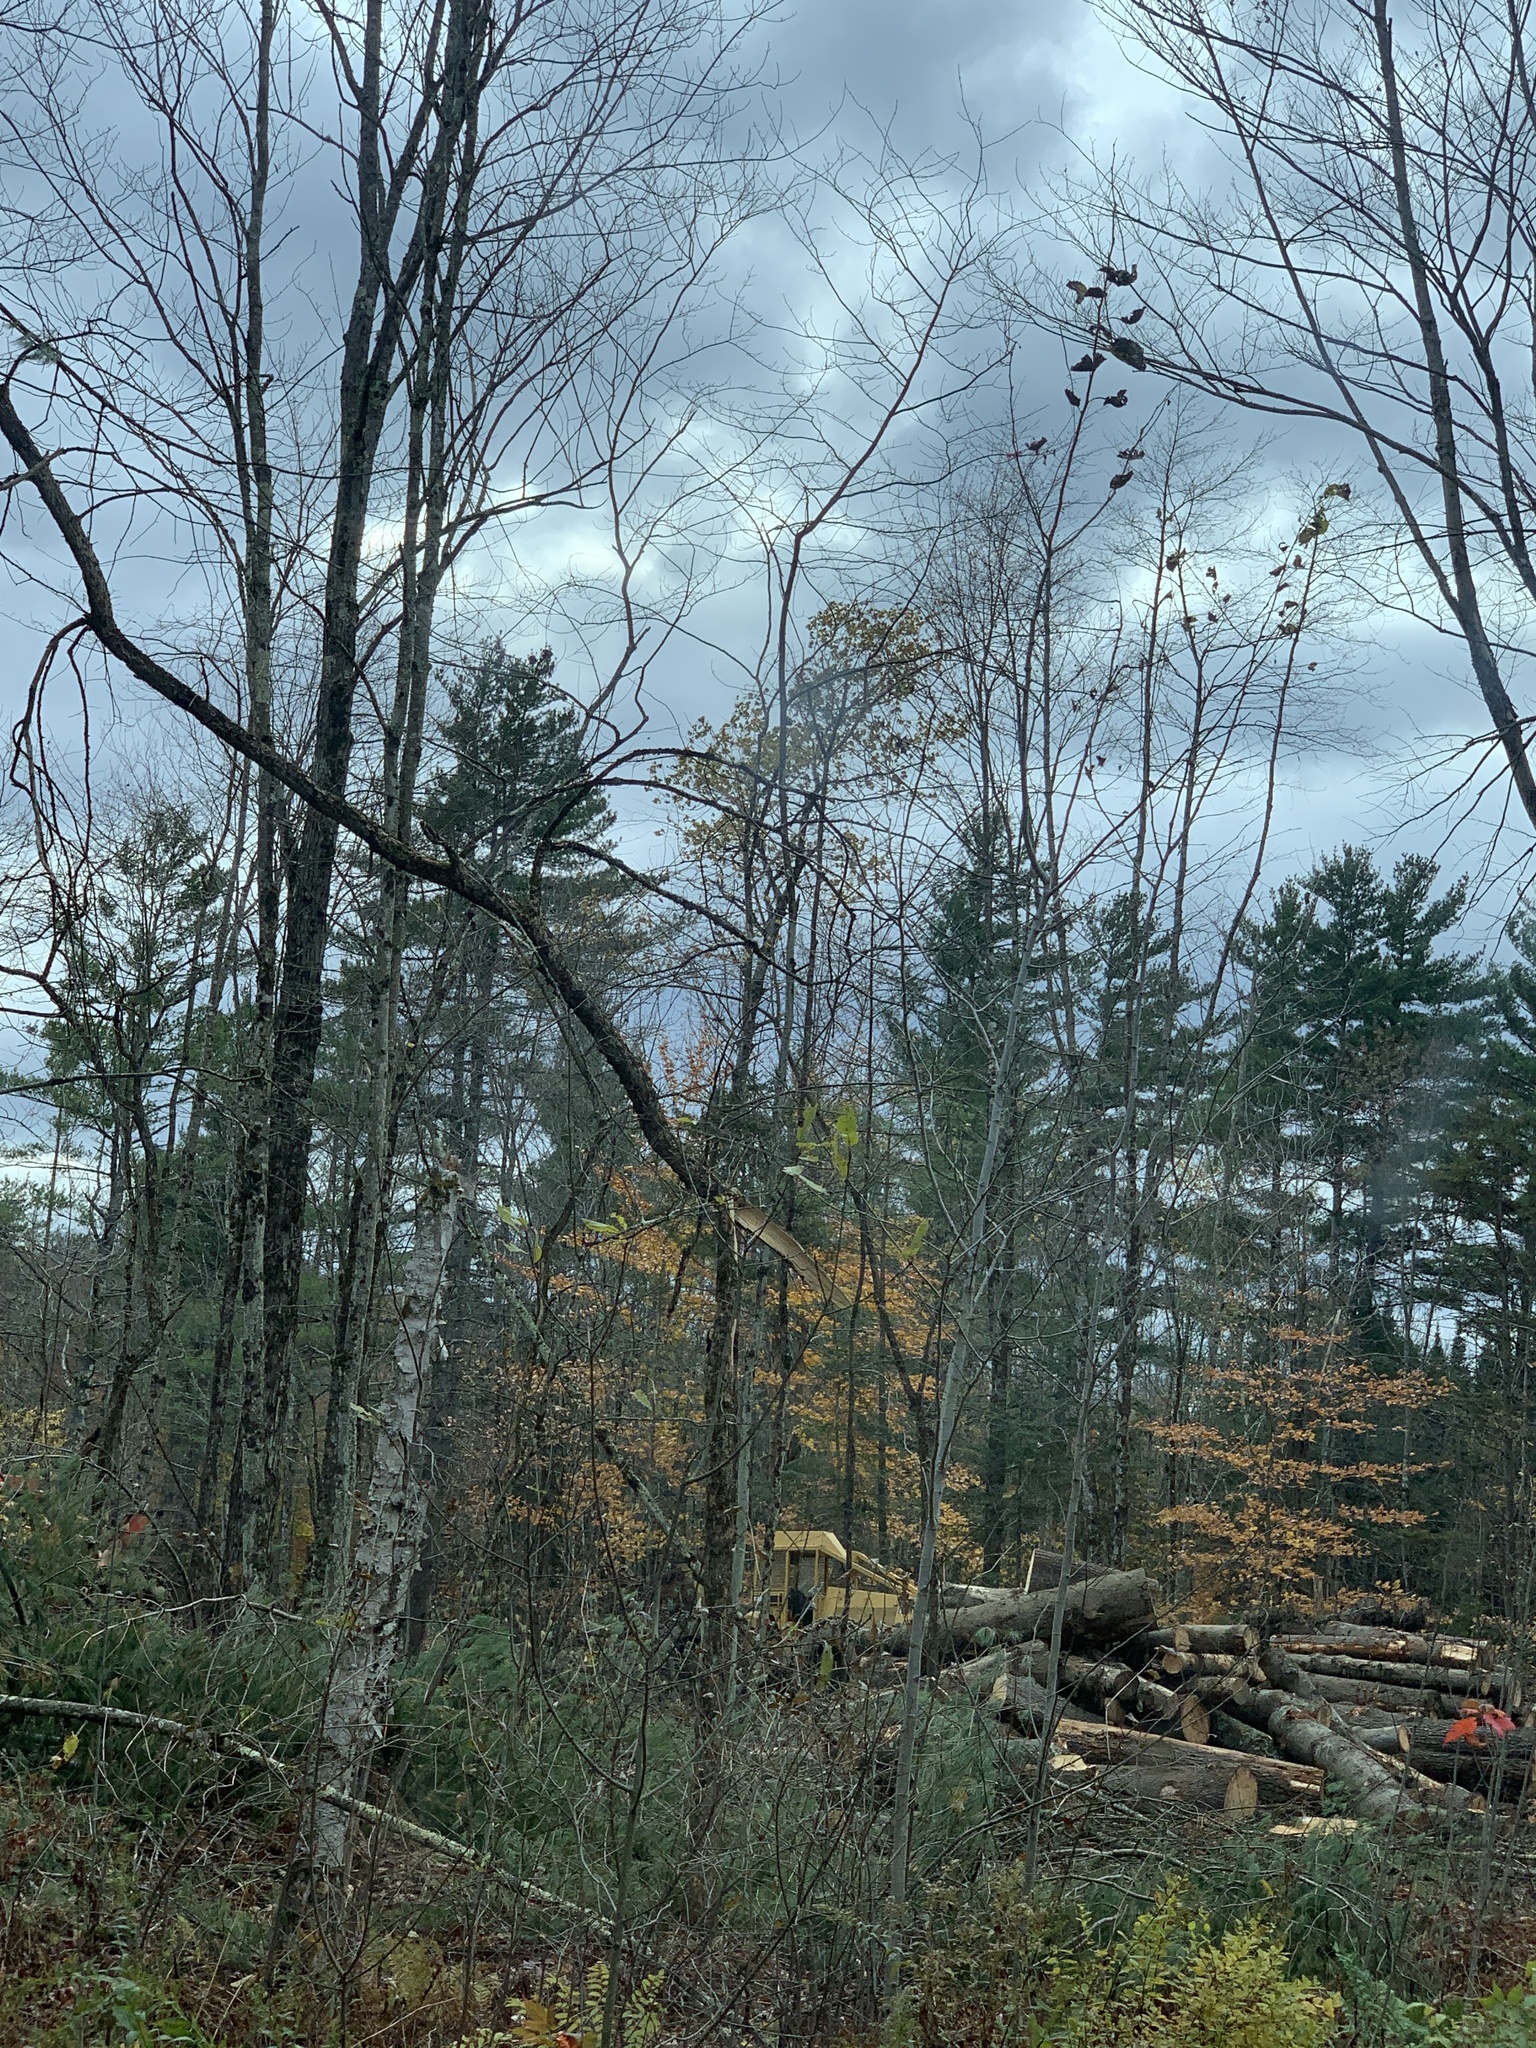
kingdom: Plantae
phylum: Tracheophyta
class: Pinopsida
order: Pinales
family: Pinaceae
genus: Pinus
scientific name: Pinus strobus
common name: Weymouth pine
